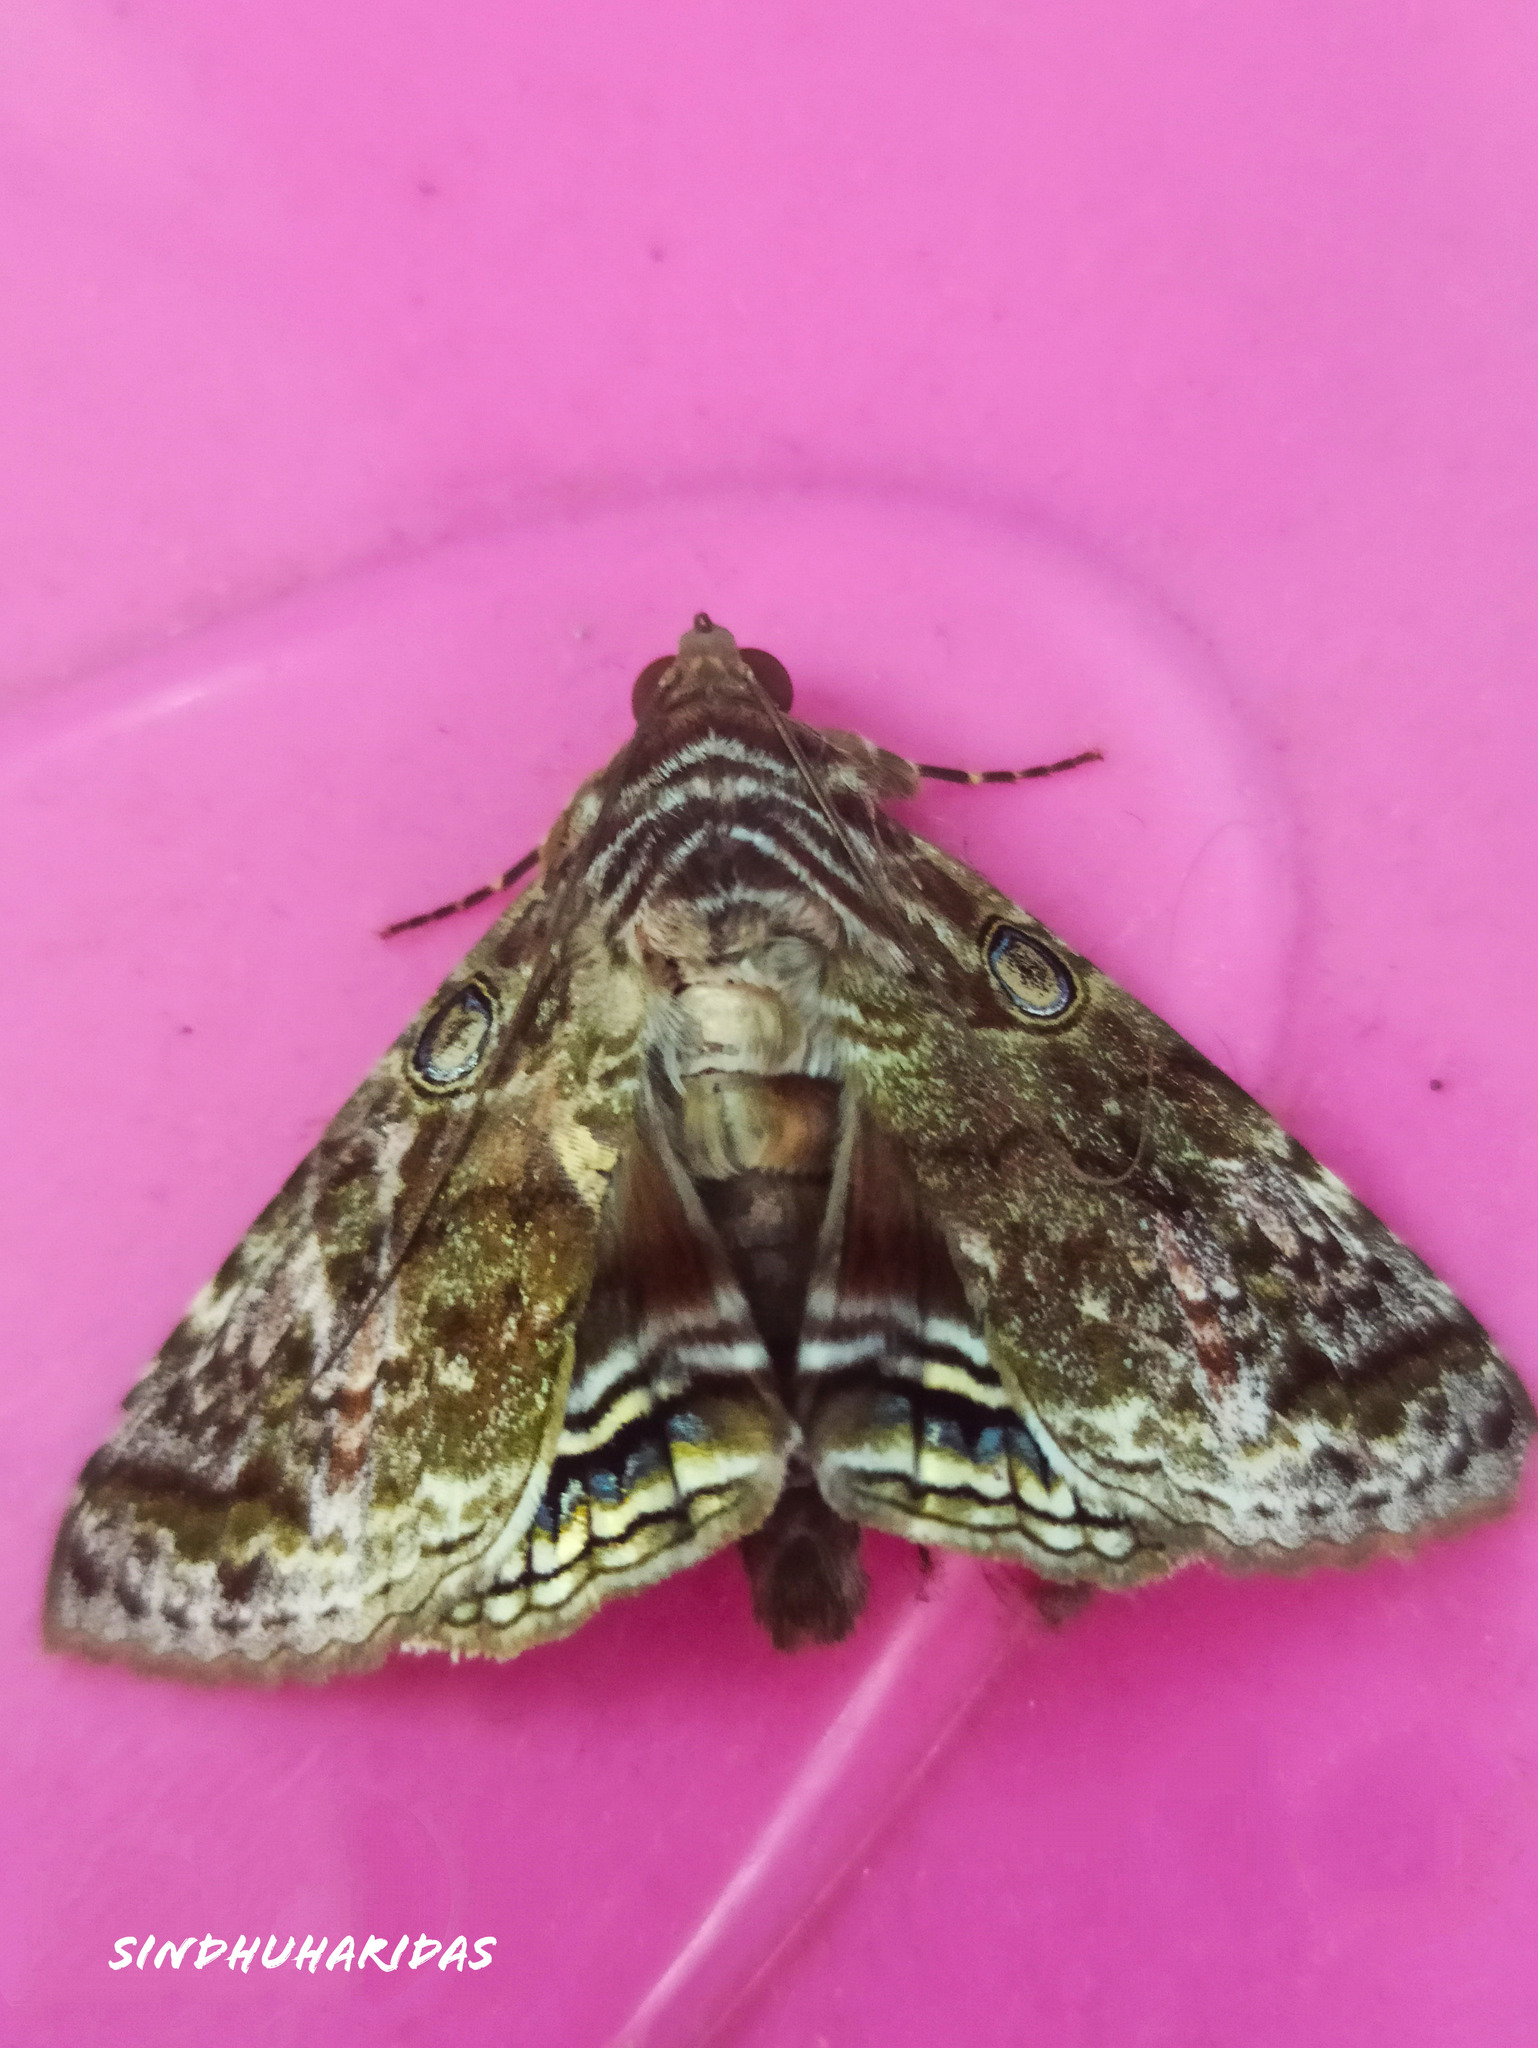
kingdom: Animalia
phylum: Arthropoda
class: Insecta
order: Lepidoptera
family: Erebidae
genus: Cyclodes
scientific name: Cyclodes omma
